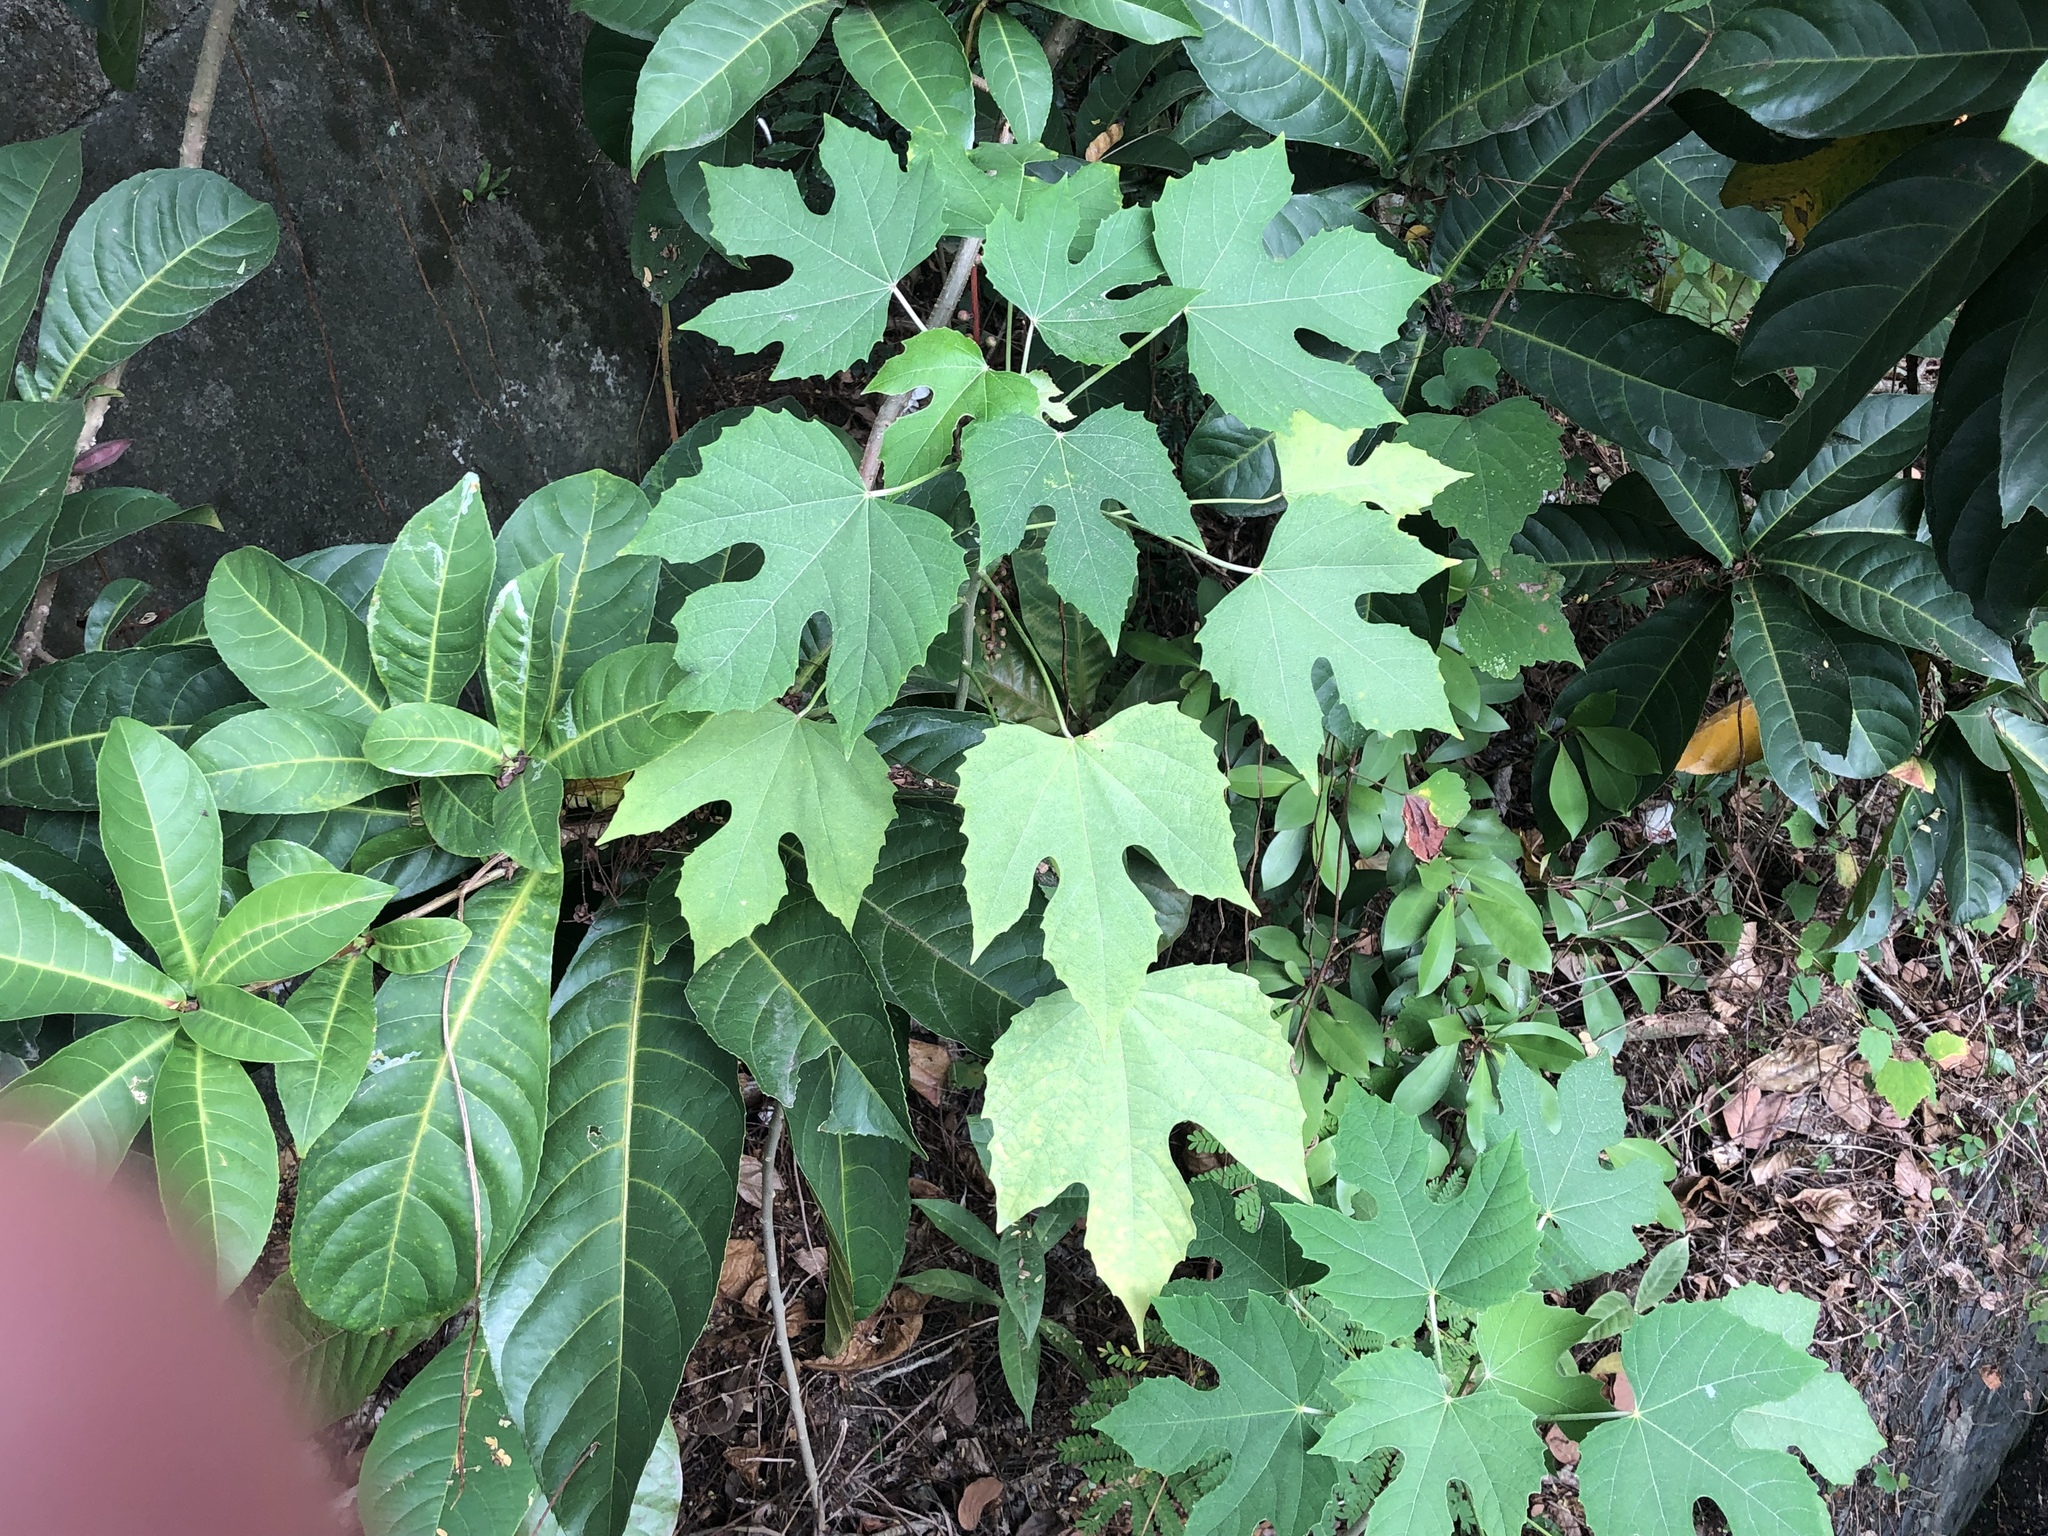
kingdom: Plantae
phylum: Tracheophyta
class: Magnoliopsida
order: Malpighiales
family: Euphorbiaceae
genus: Melanolepis
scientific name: Melanolepis multiglandulosa
